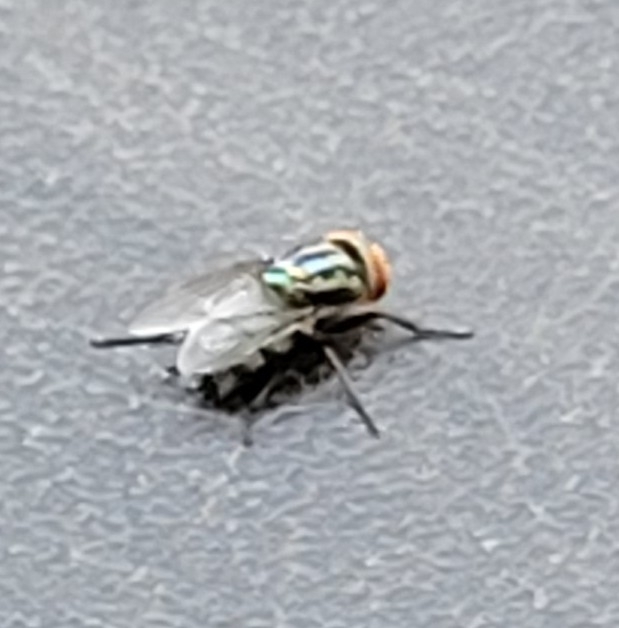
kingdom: Animalia
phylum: Arthropoda
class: Insecta
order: Diptera
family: Calliphoridae
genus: Cochliomyia
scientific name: Cochliomyia macellaria
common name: Secondary screwworm
